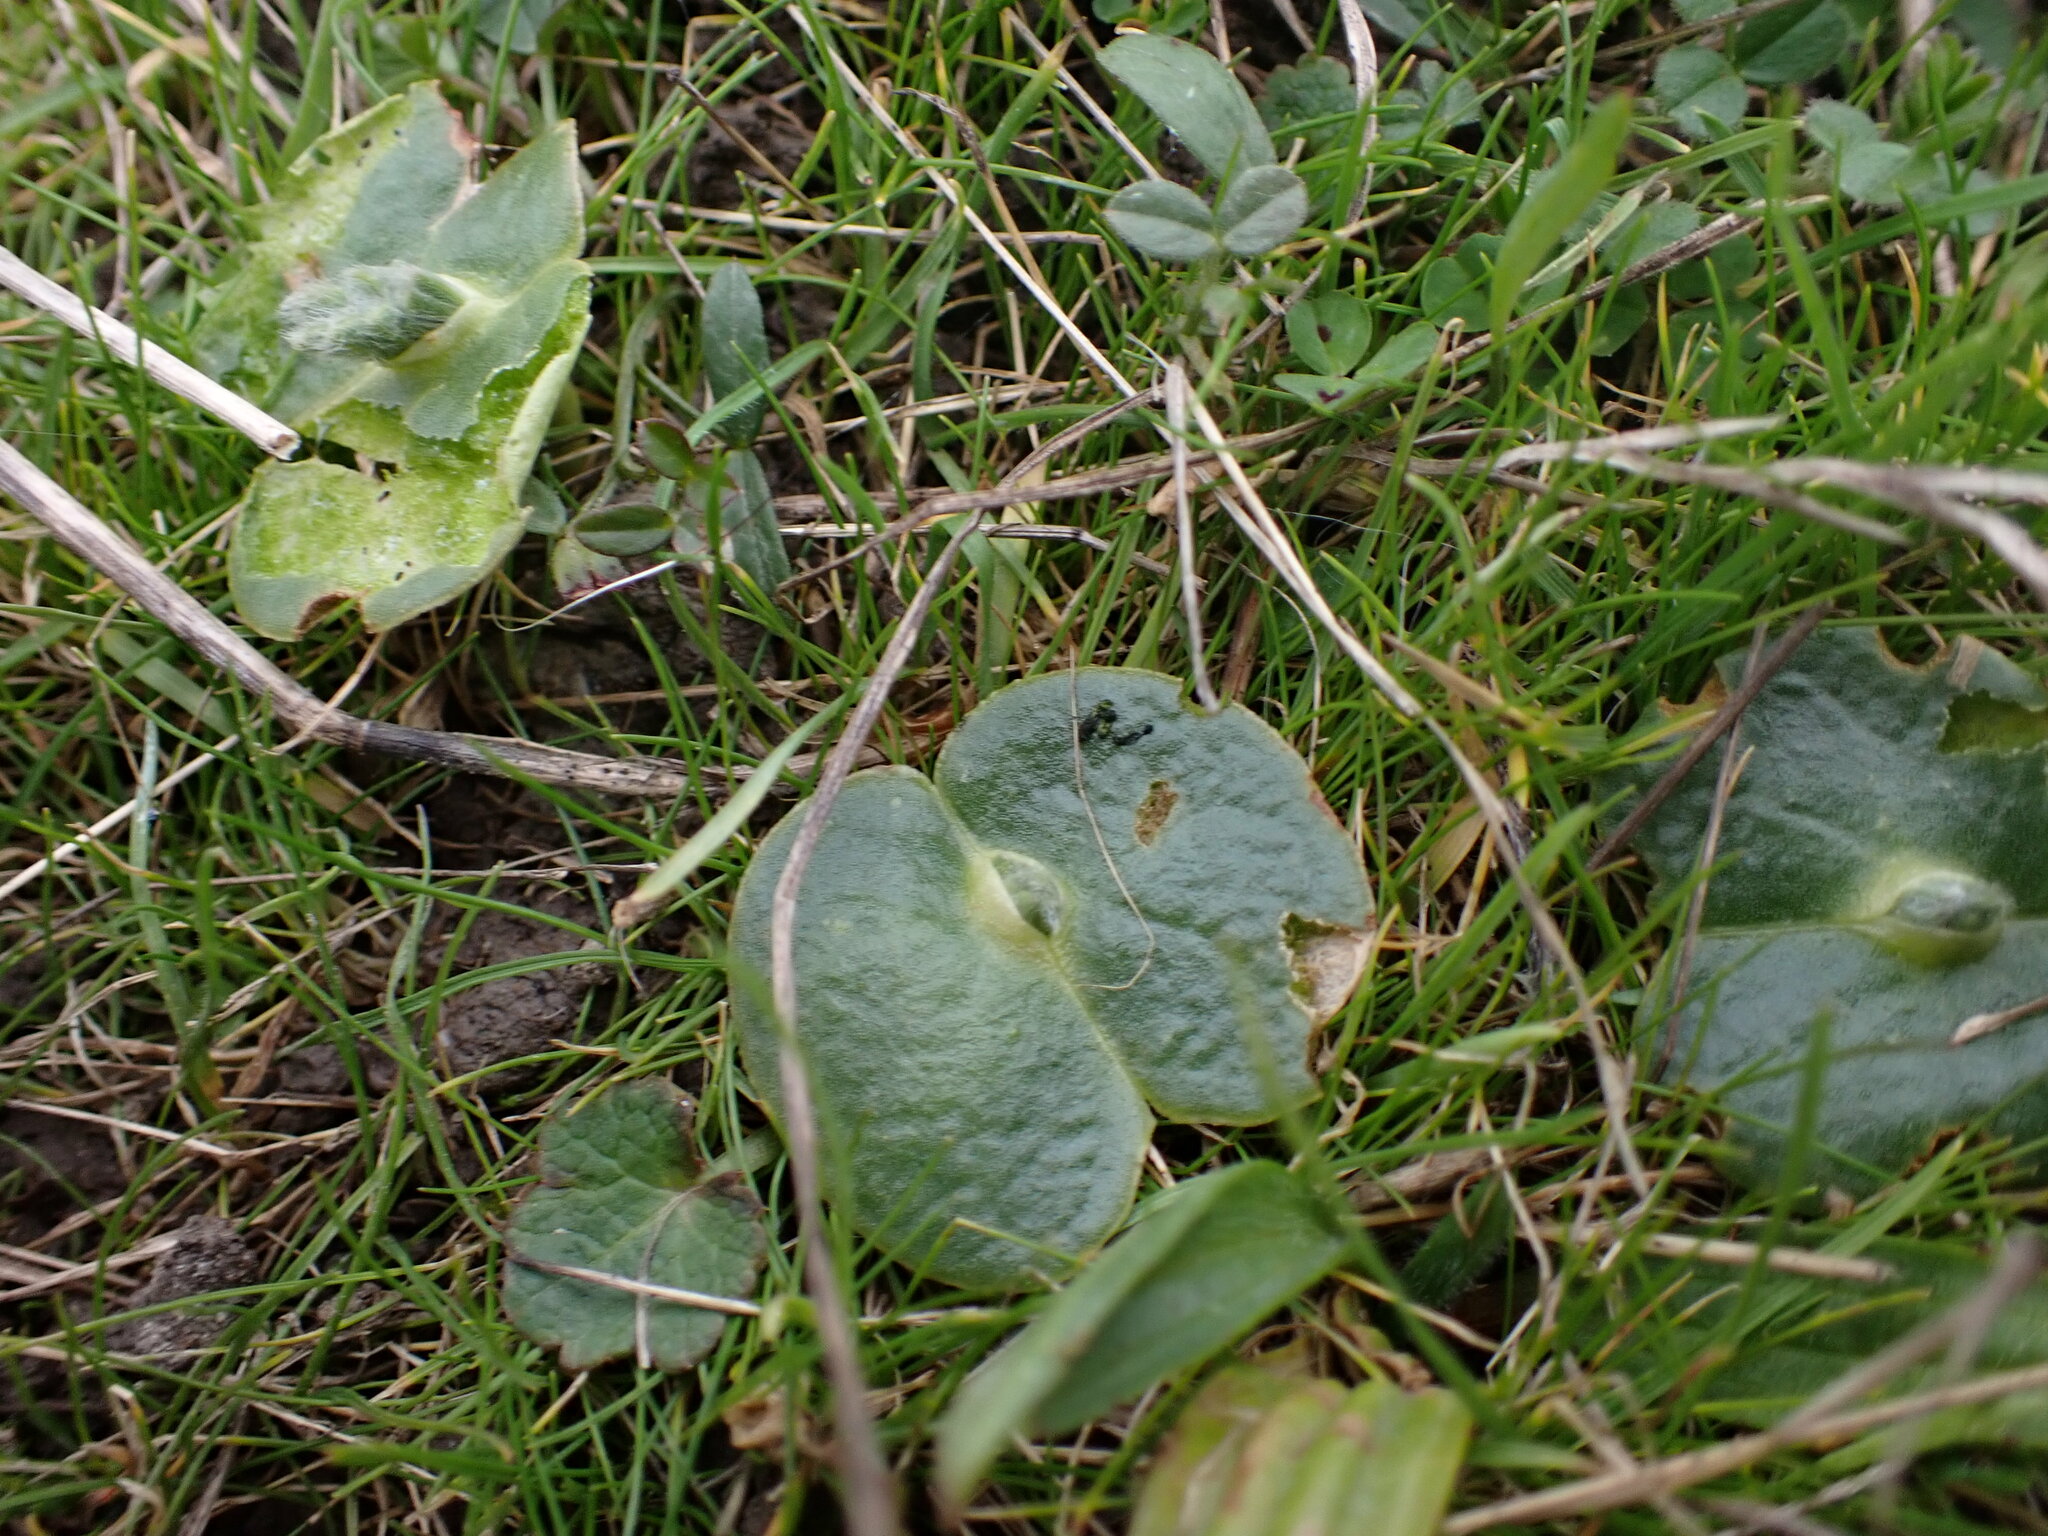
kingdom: Plantae
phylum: Tracheophyta
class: Magnoliopsida
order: Fabales
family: Fabaceae
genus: Lupinus
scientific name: Lupinus densiflorus
